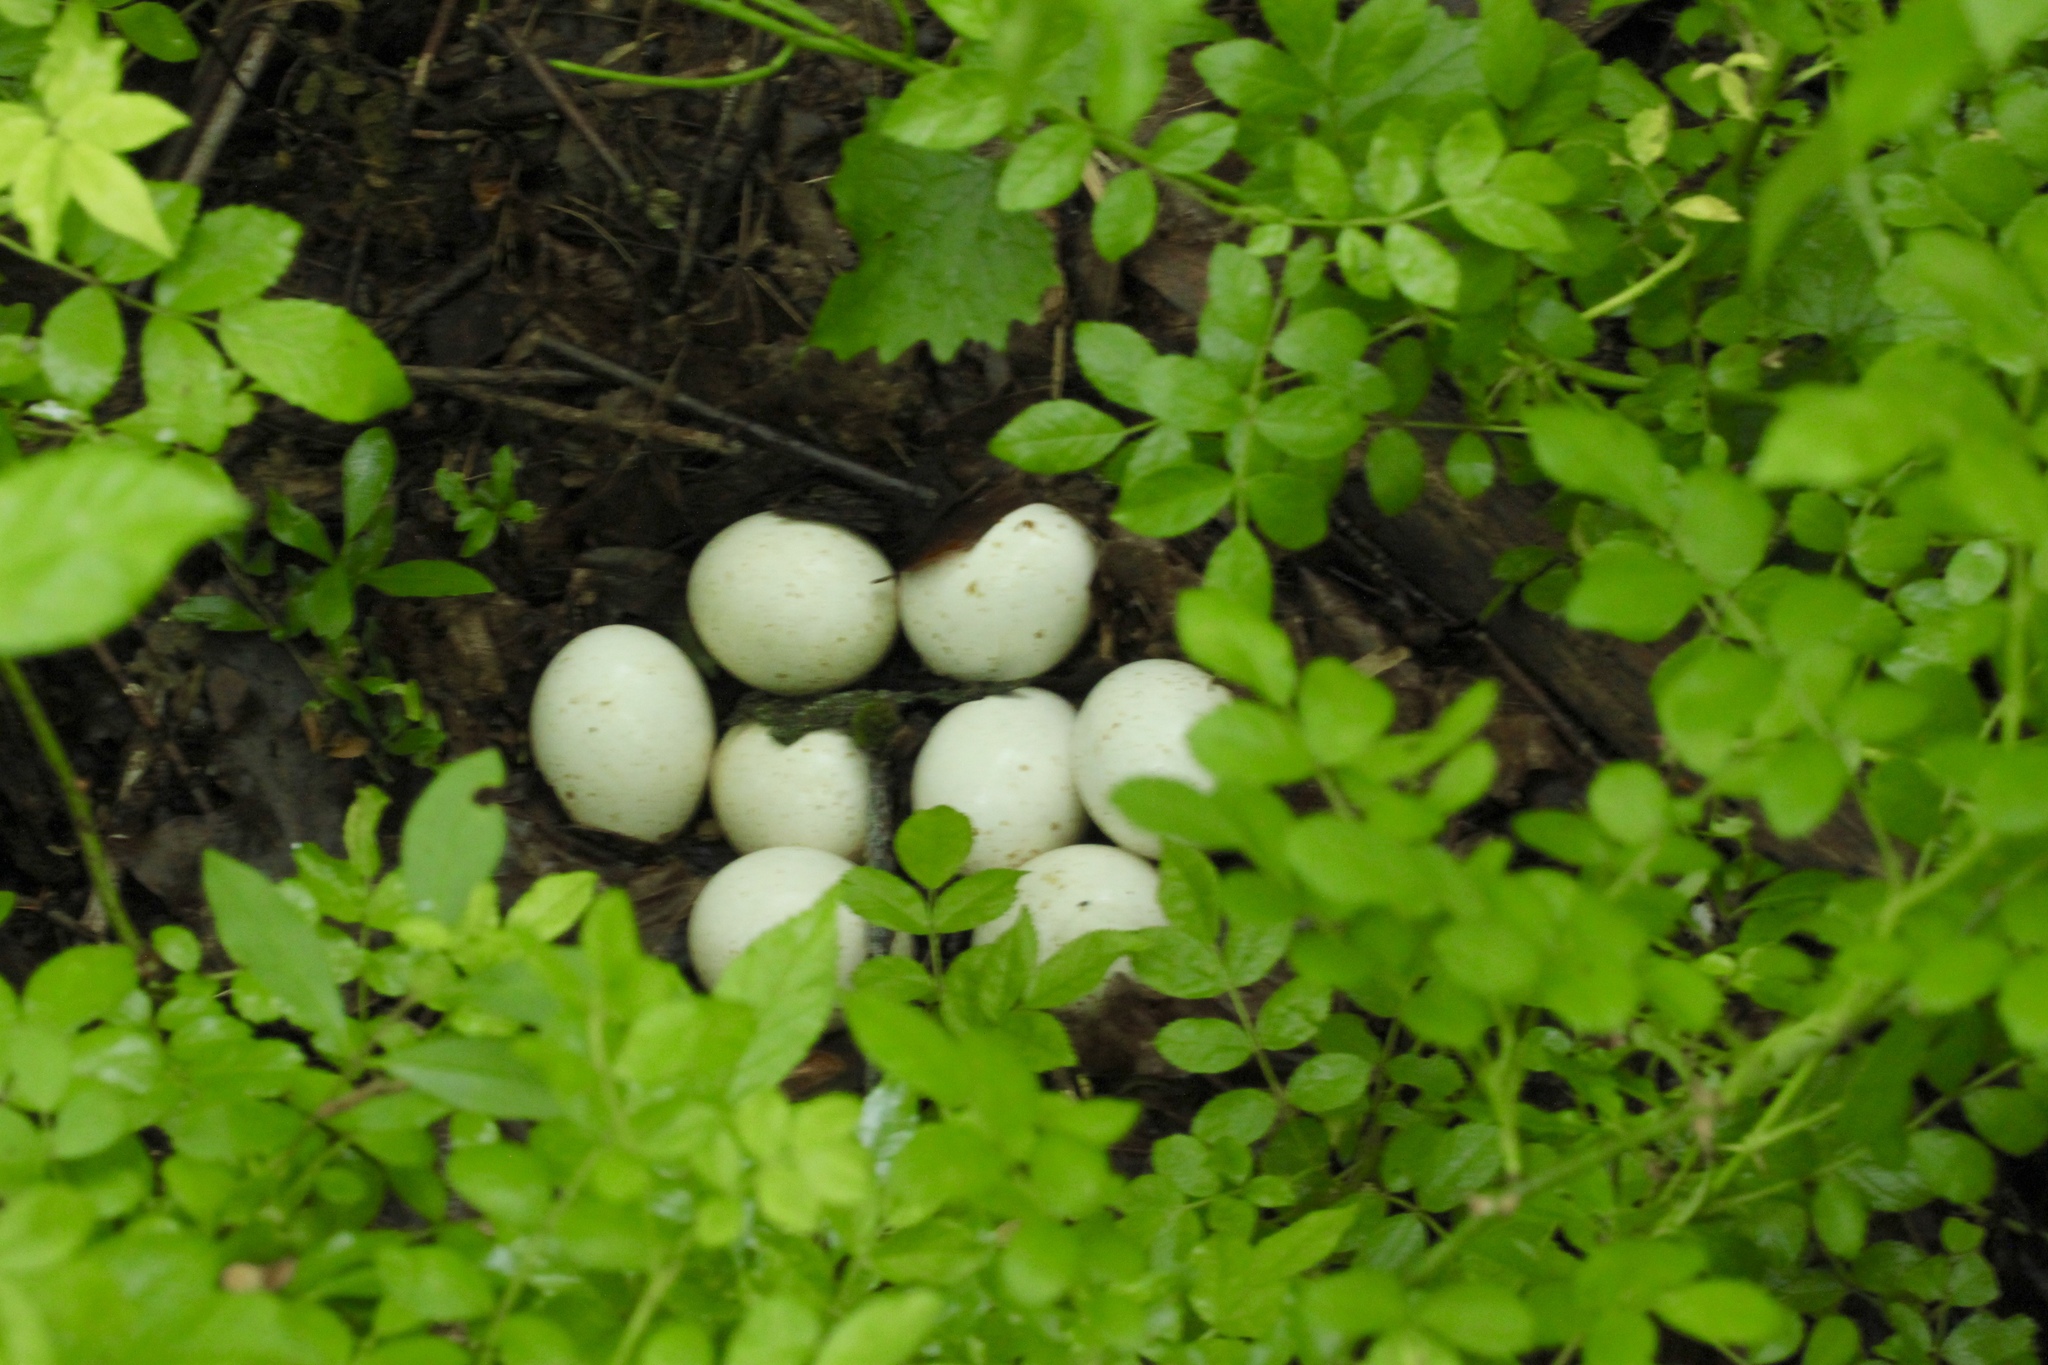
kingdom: Animalia
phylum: Chordata
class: Aves
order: Galliformes
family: Phasianidae
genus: Meleagris
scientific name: Meleagris gallopavo
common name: Wild turkey
